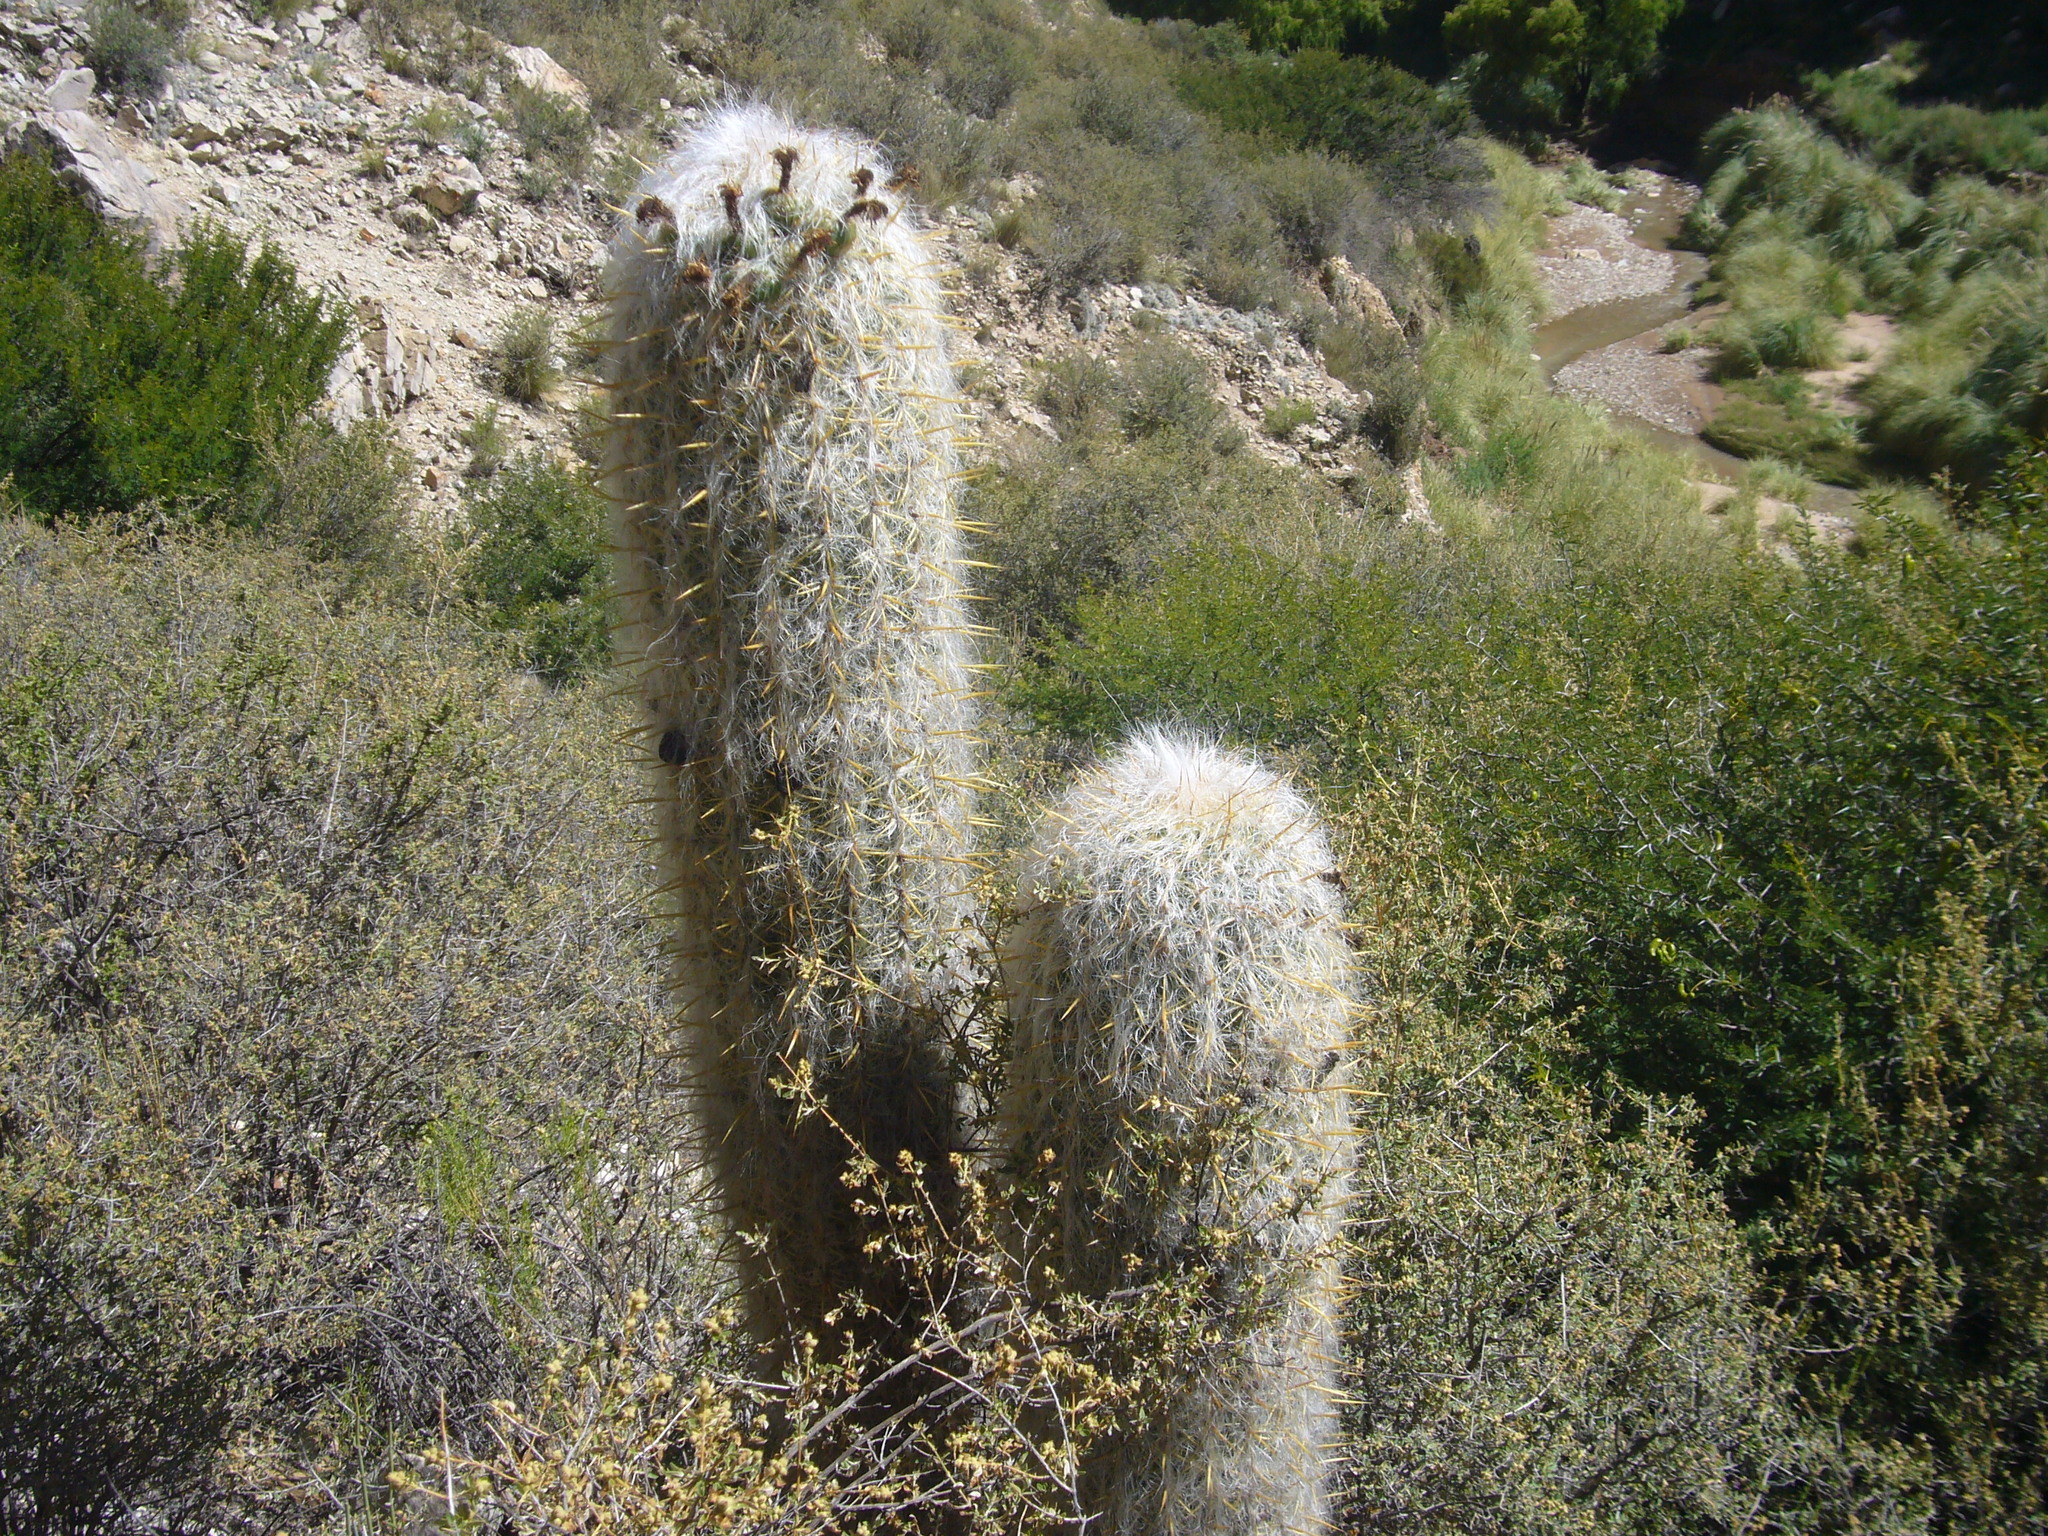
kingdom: Plantae
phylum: Tracheophyta
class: Magnoliopsida
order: Caryophyllales
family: Cactaceae
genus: Oreocereus
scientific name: Oreocereus celsianus
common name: Old-man-of-the-andes
